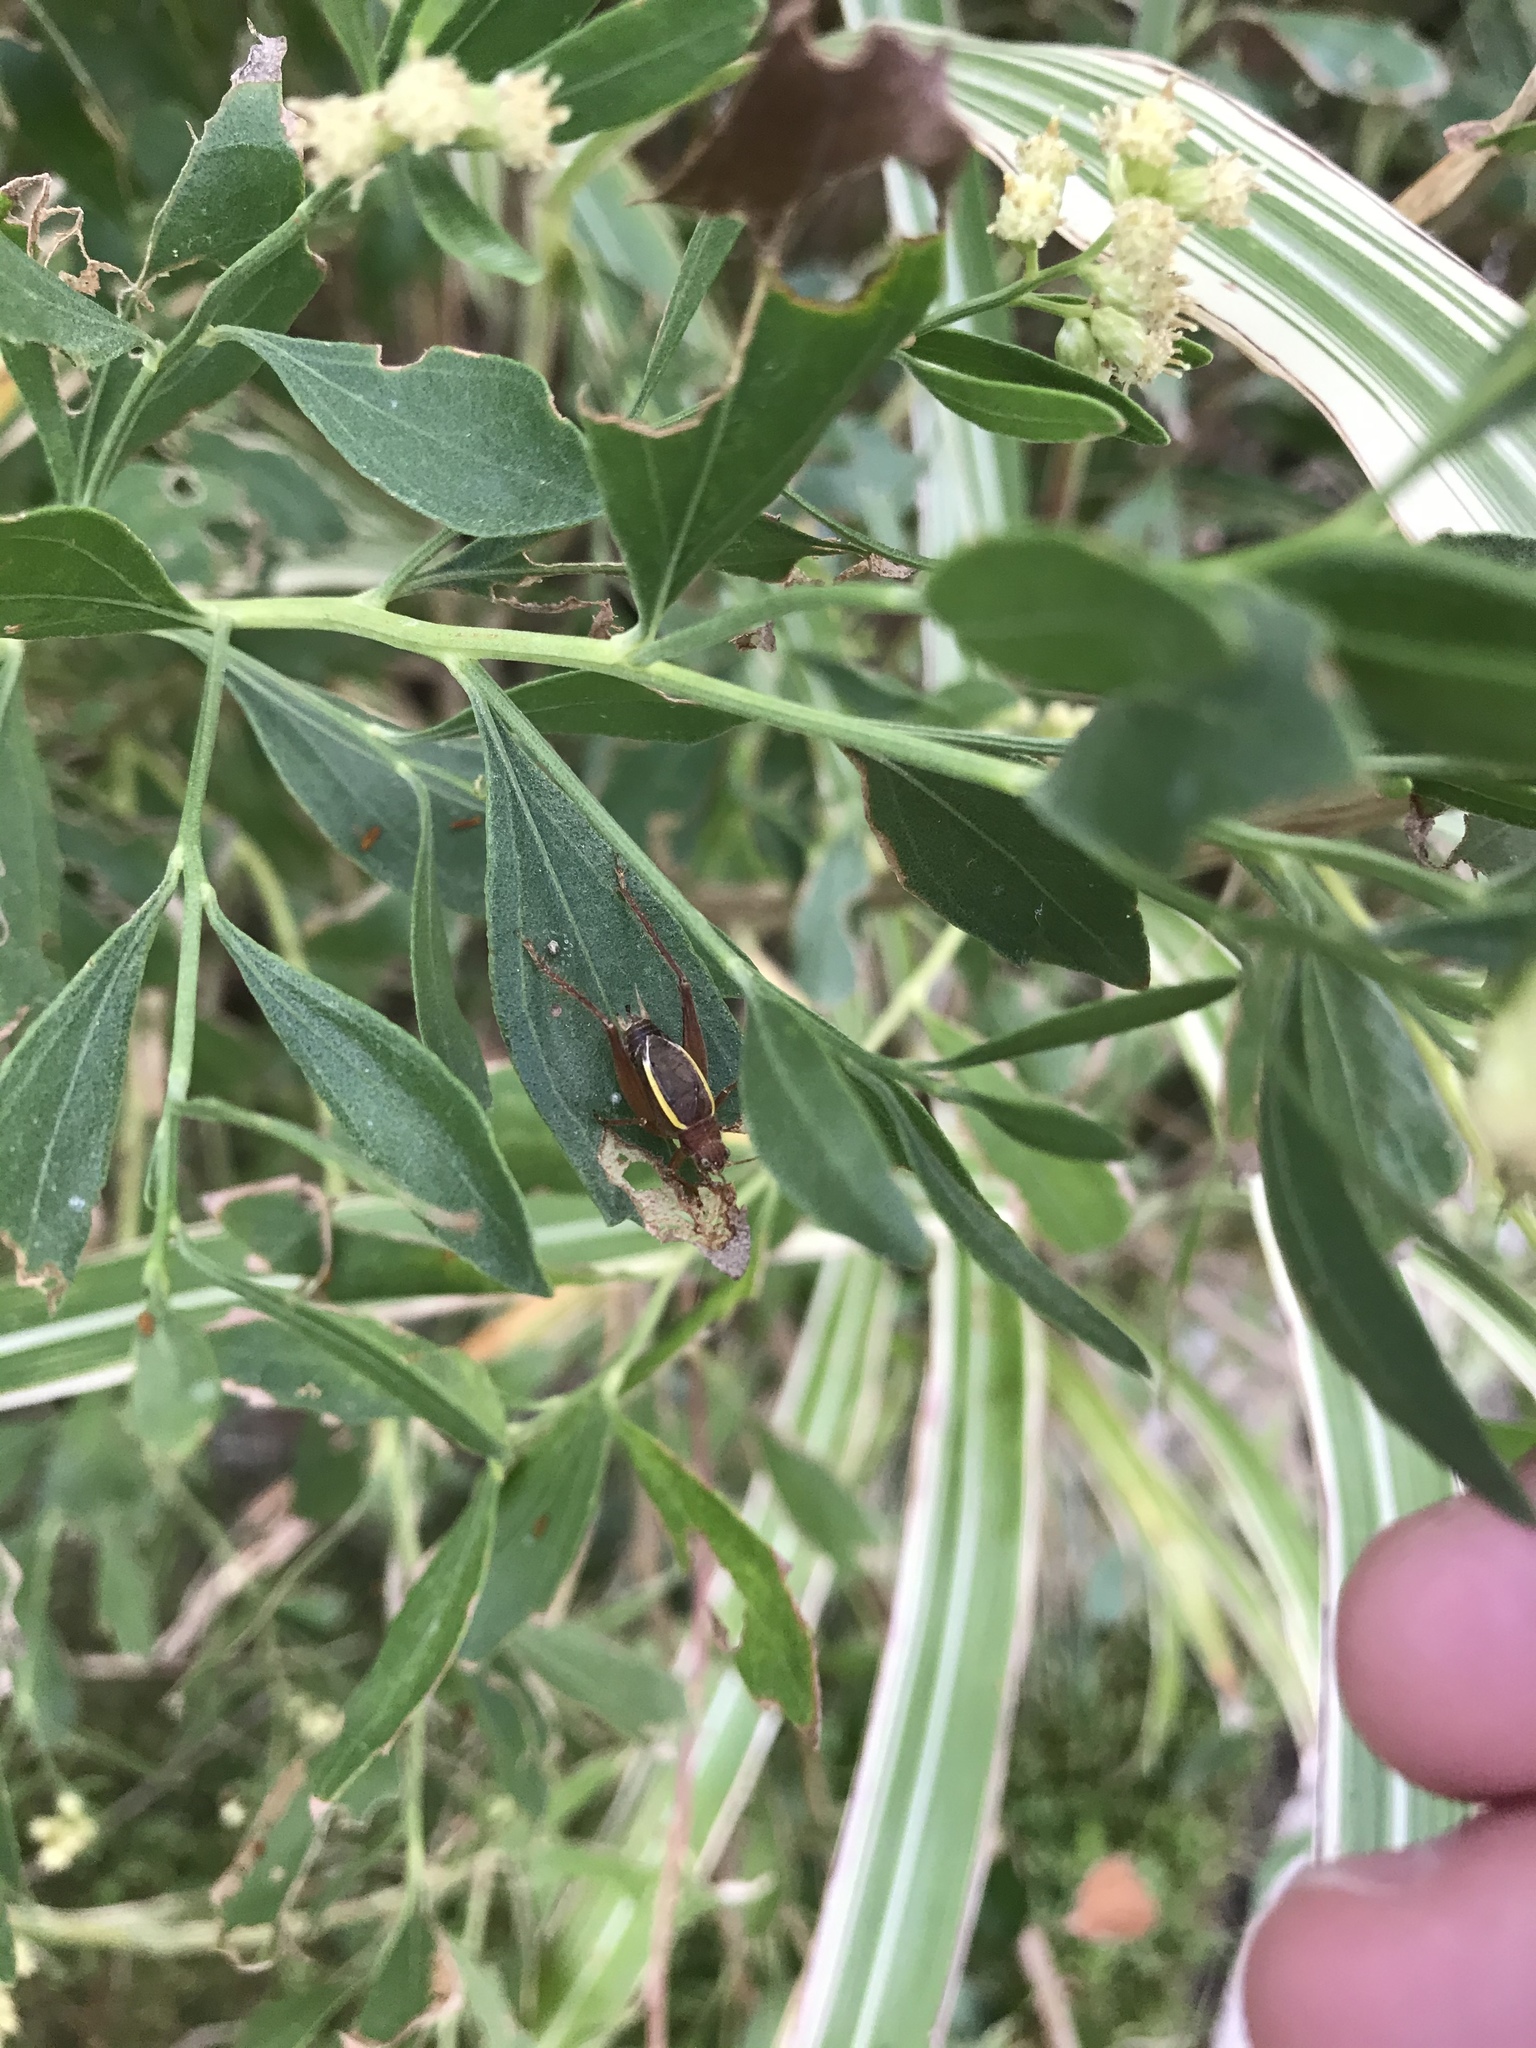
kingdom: Animalia
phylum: Arthropoda
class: Insecta
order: Orthoptera
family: Gryllidae
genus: Hapithus
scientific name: Hapithus agitator
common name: Restless bush cricket
